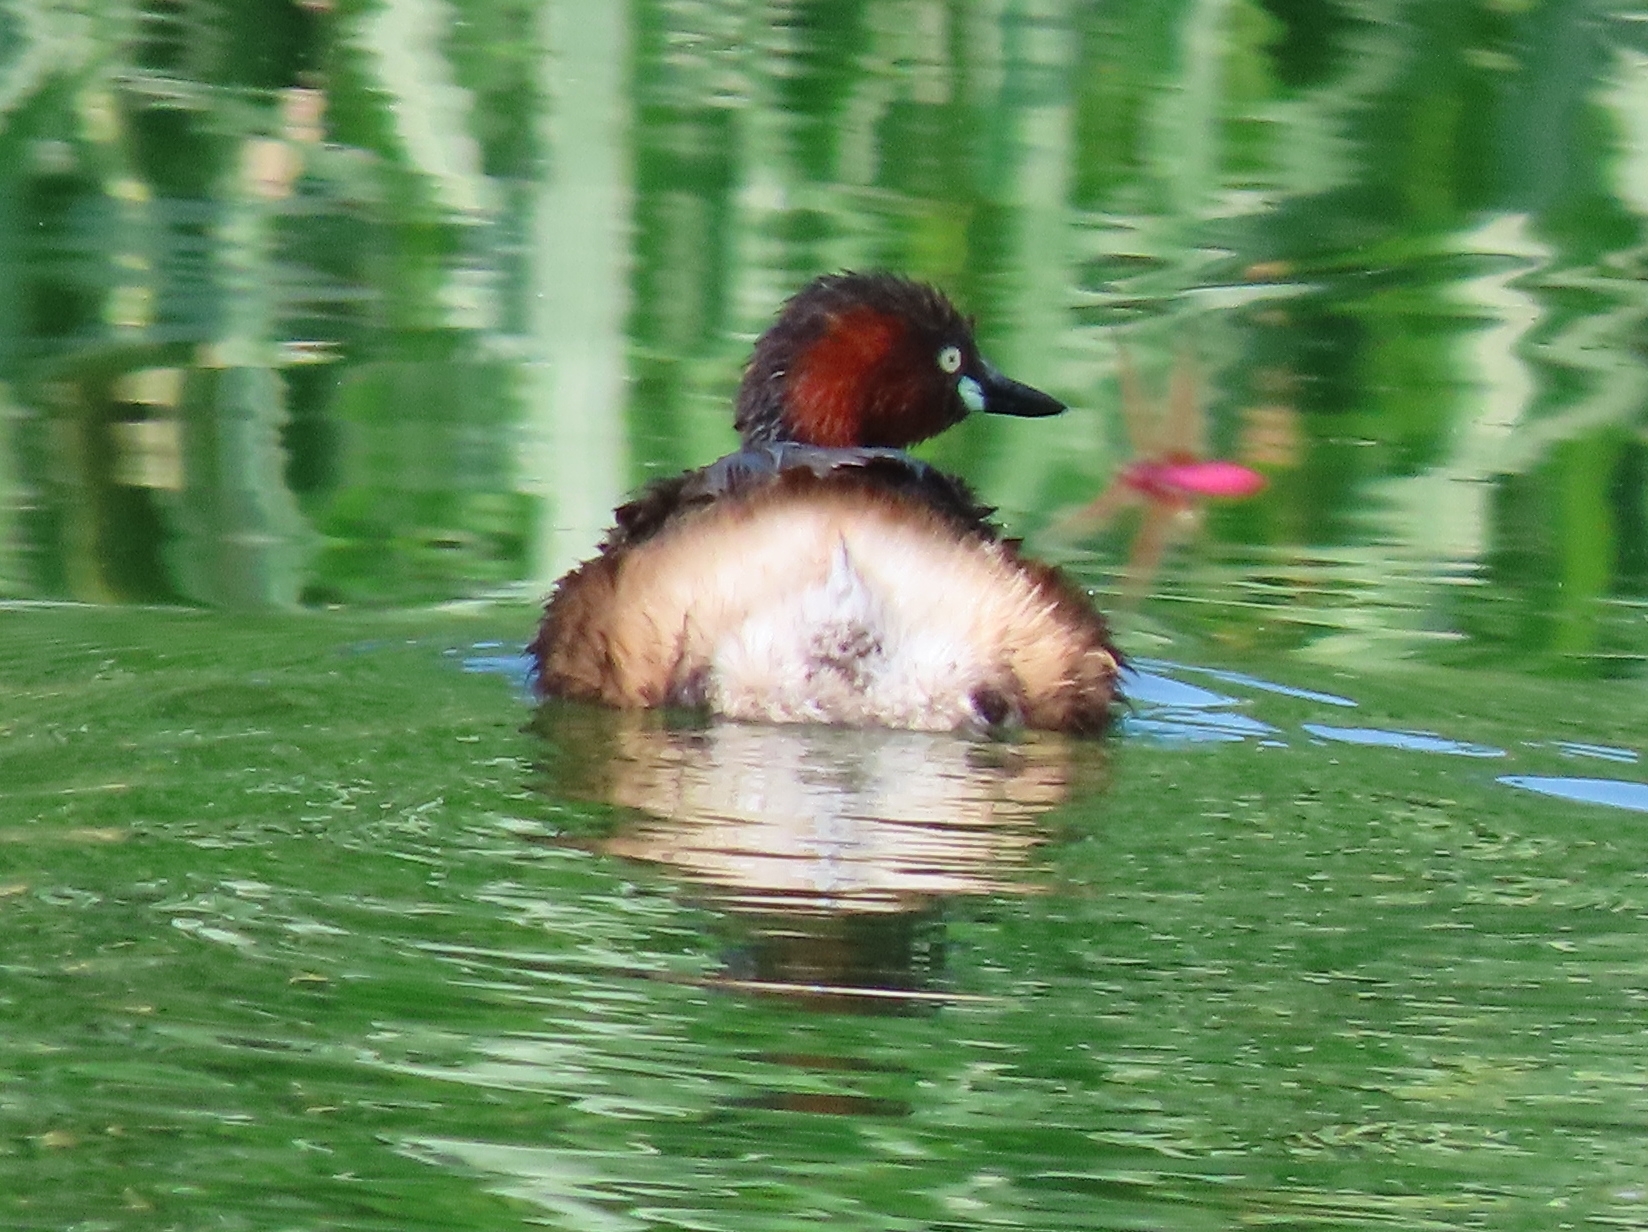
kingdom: Animalia
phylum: Chordata
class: Aves
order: Podicipediformes
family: Podicipedidae
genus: Tachybaptus
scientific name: Tachybaptus ruficollis
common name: Little grebe
